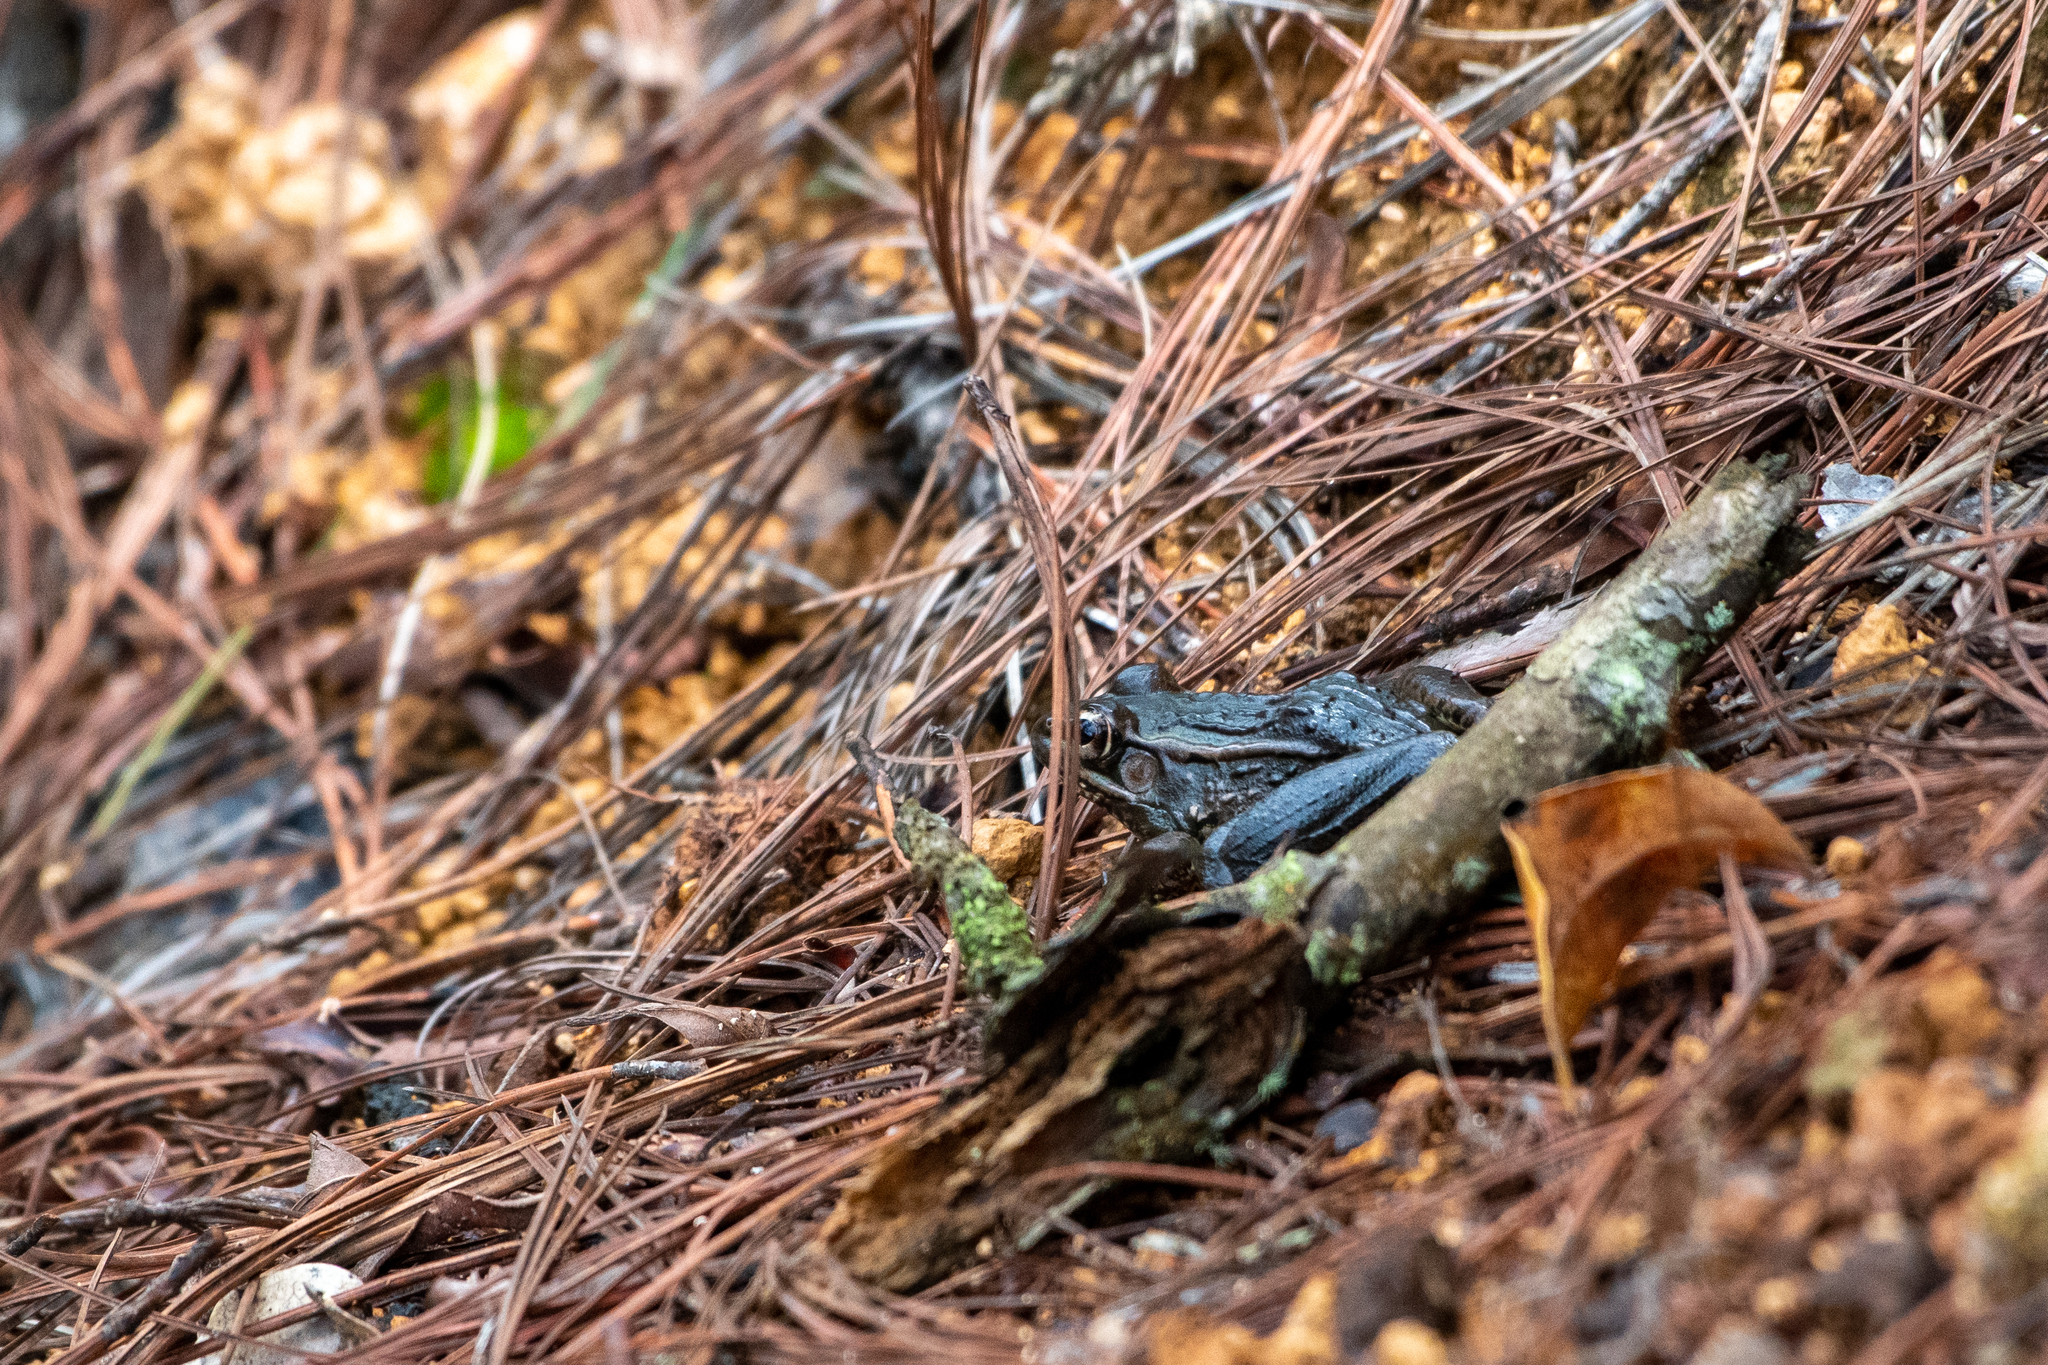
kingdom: Animalia
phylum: Chordata
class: Amphibia
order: Anura
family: Ranidae
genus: Lithobates
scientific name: Lithobates lenca
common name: Lenca leopard frog
